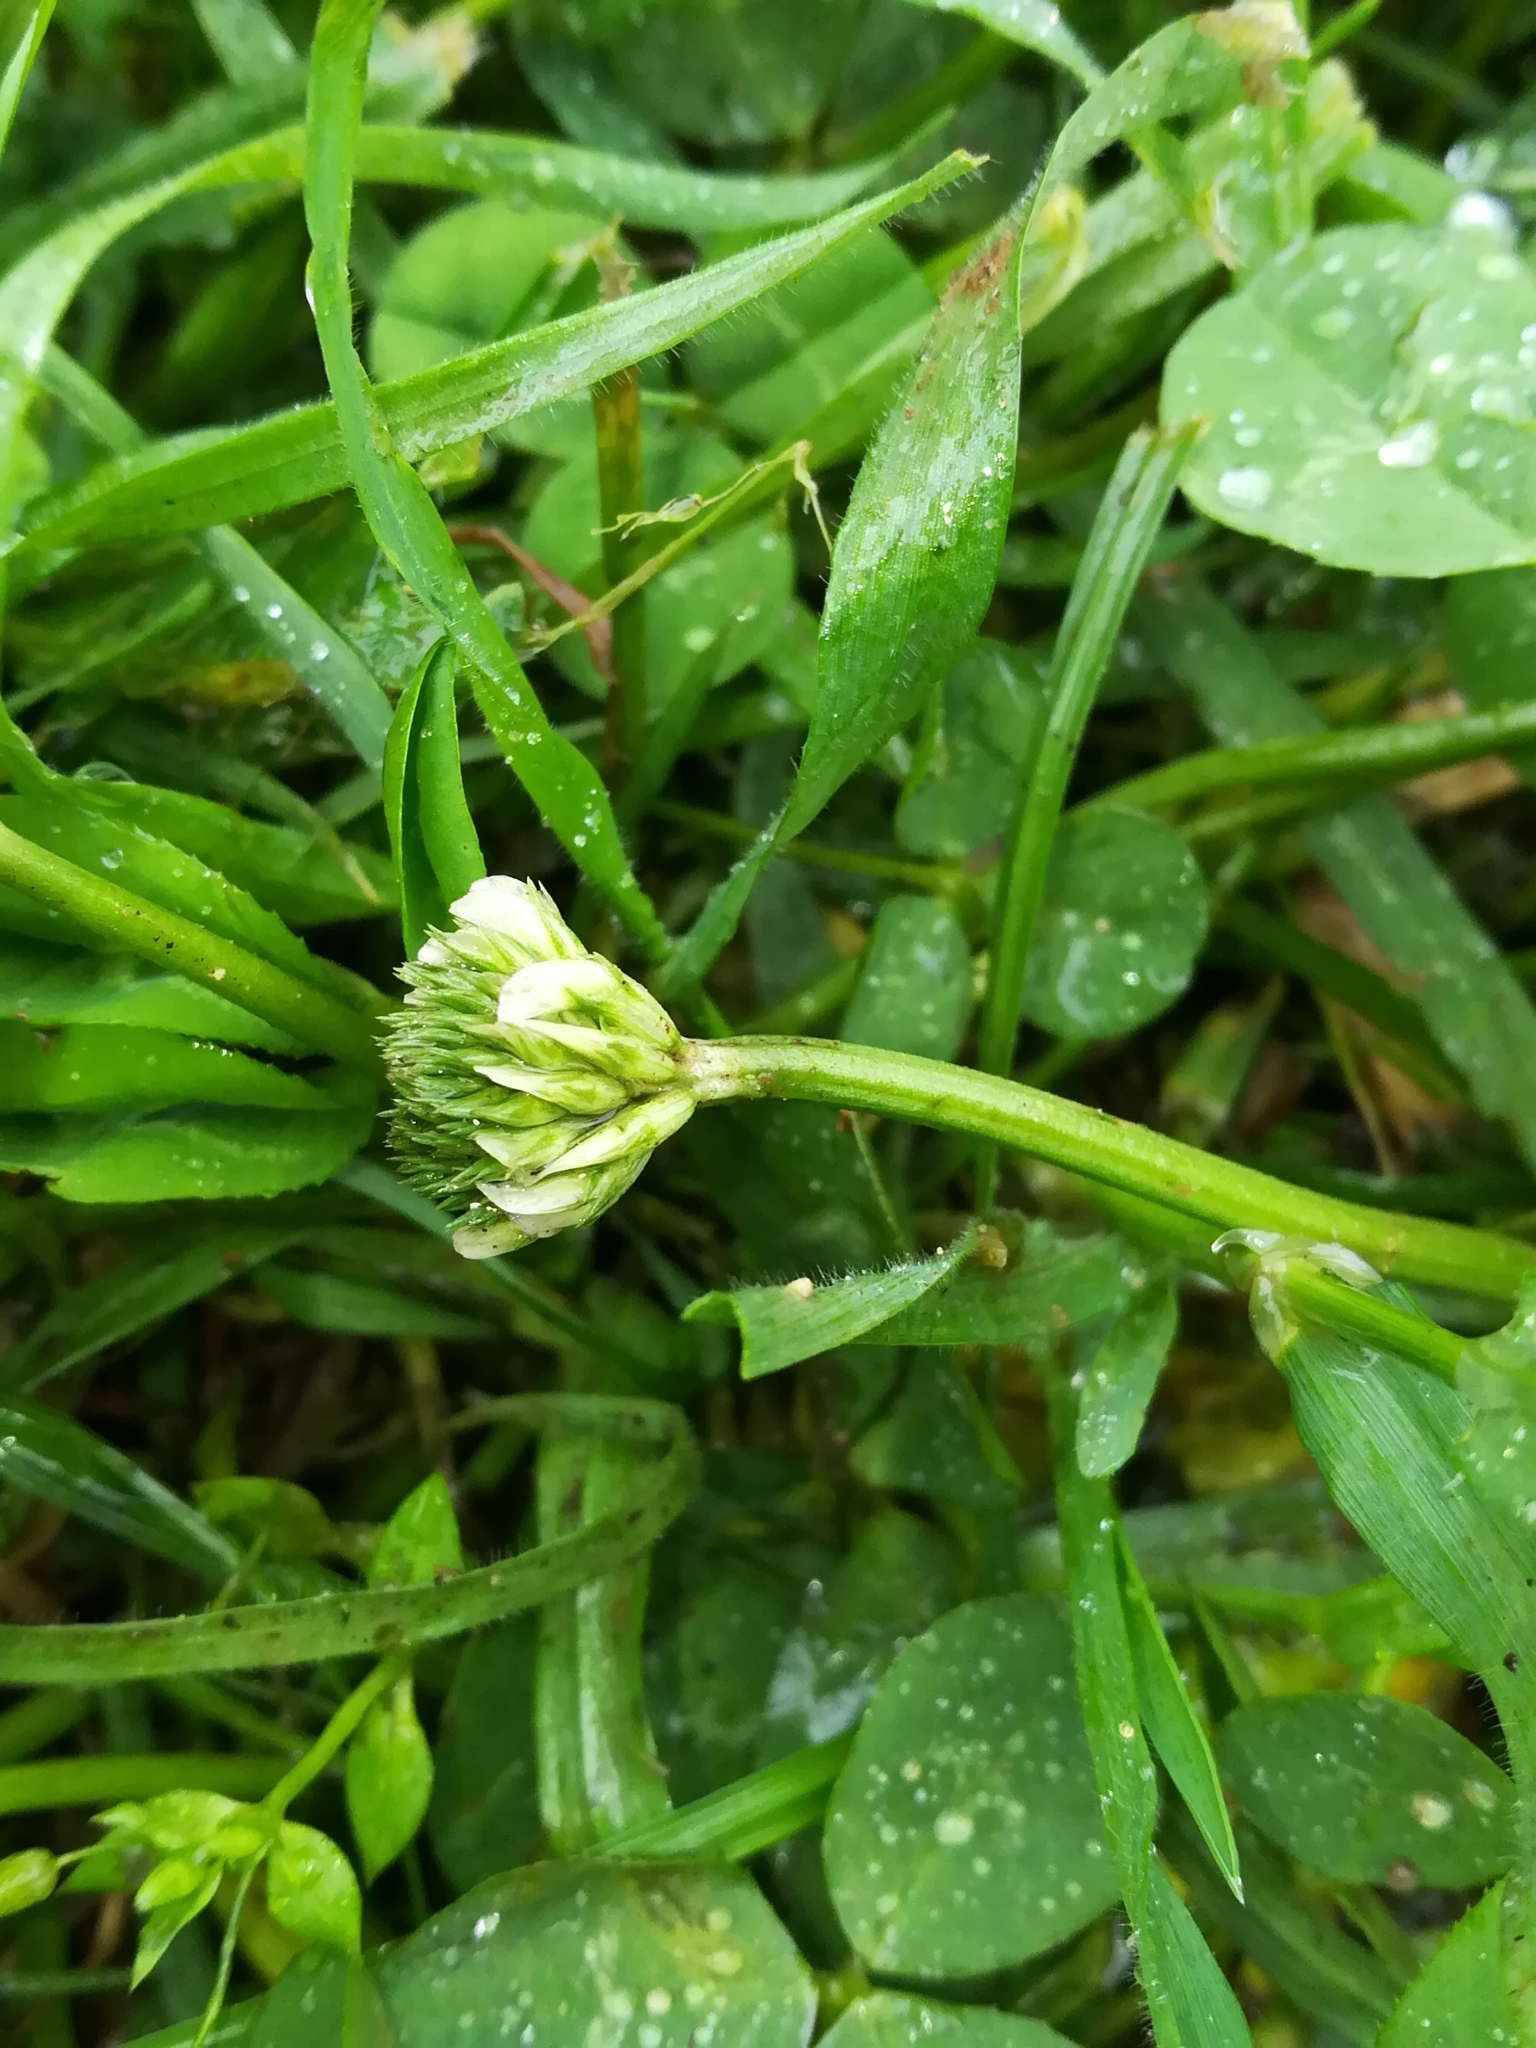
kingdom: Plantae
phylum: Tracheophyta
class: Magnoliopsida
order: Fabales
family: Fabaceae
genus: Trifolium
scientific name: Trifolium repens
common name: White clover
